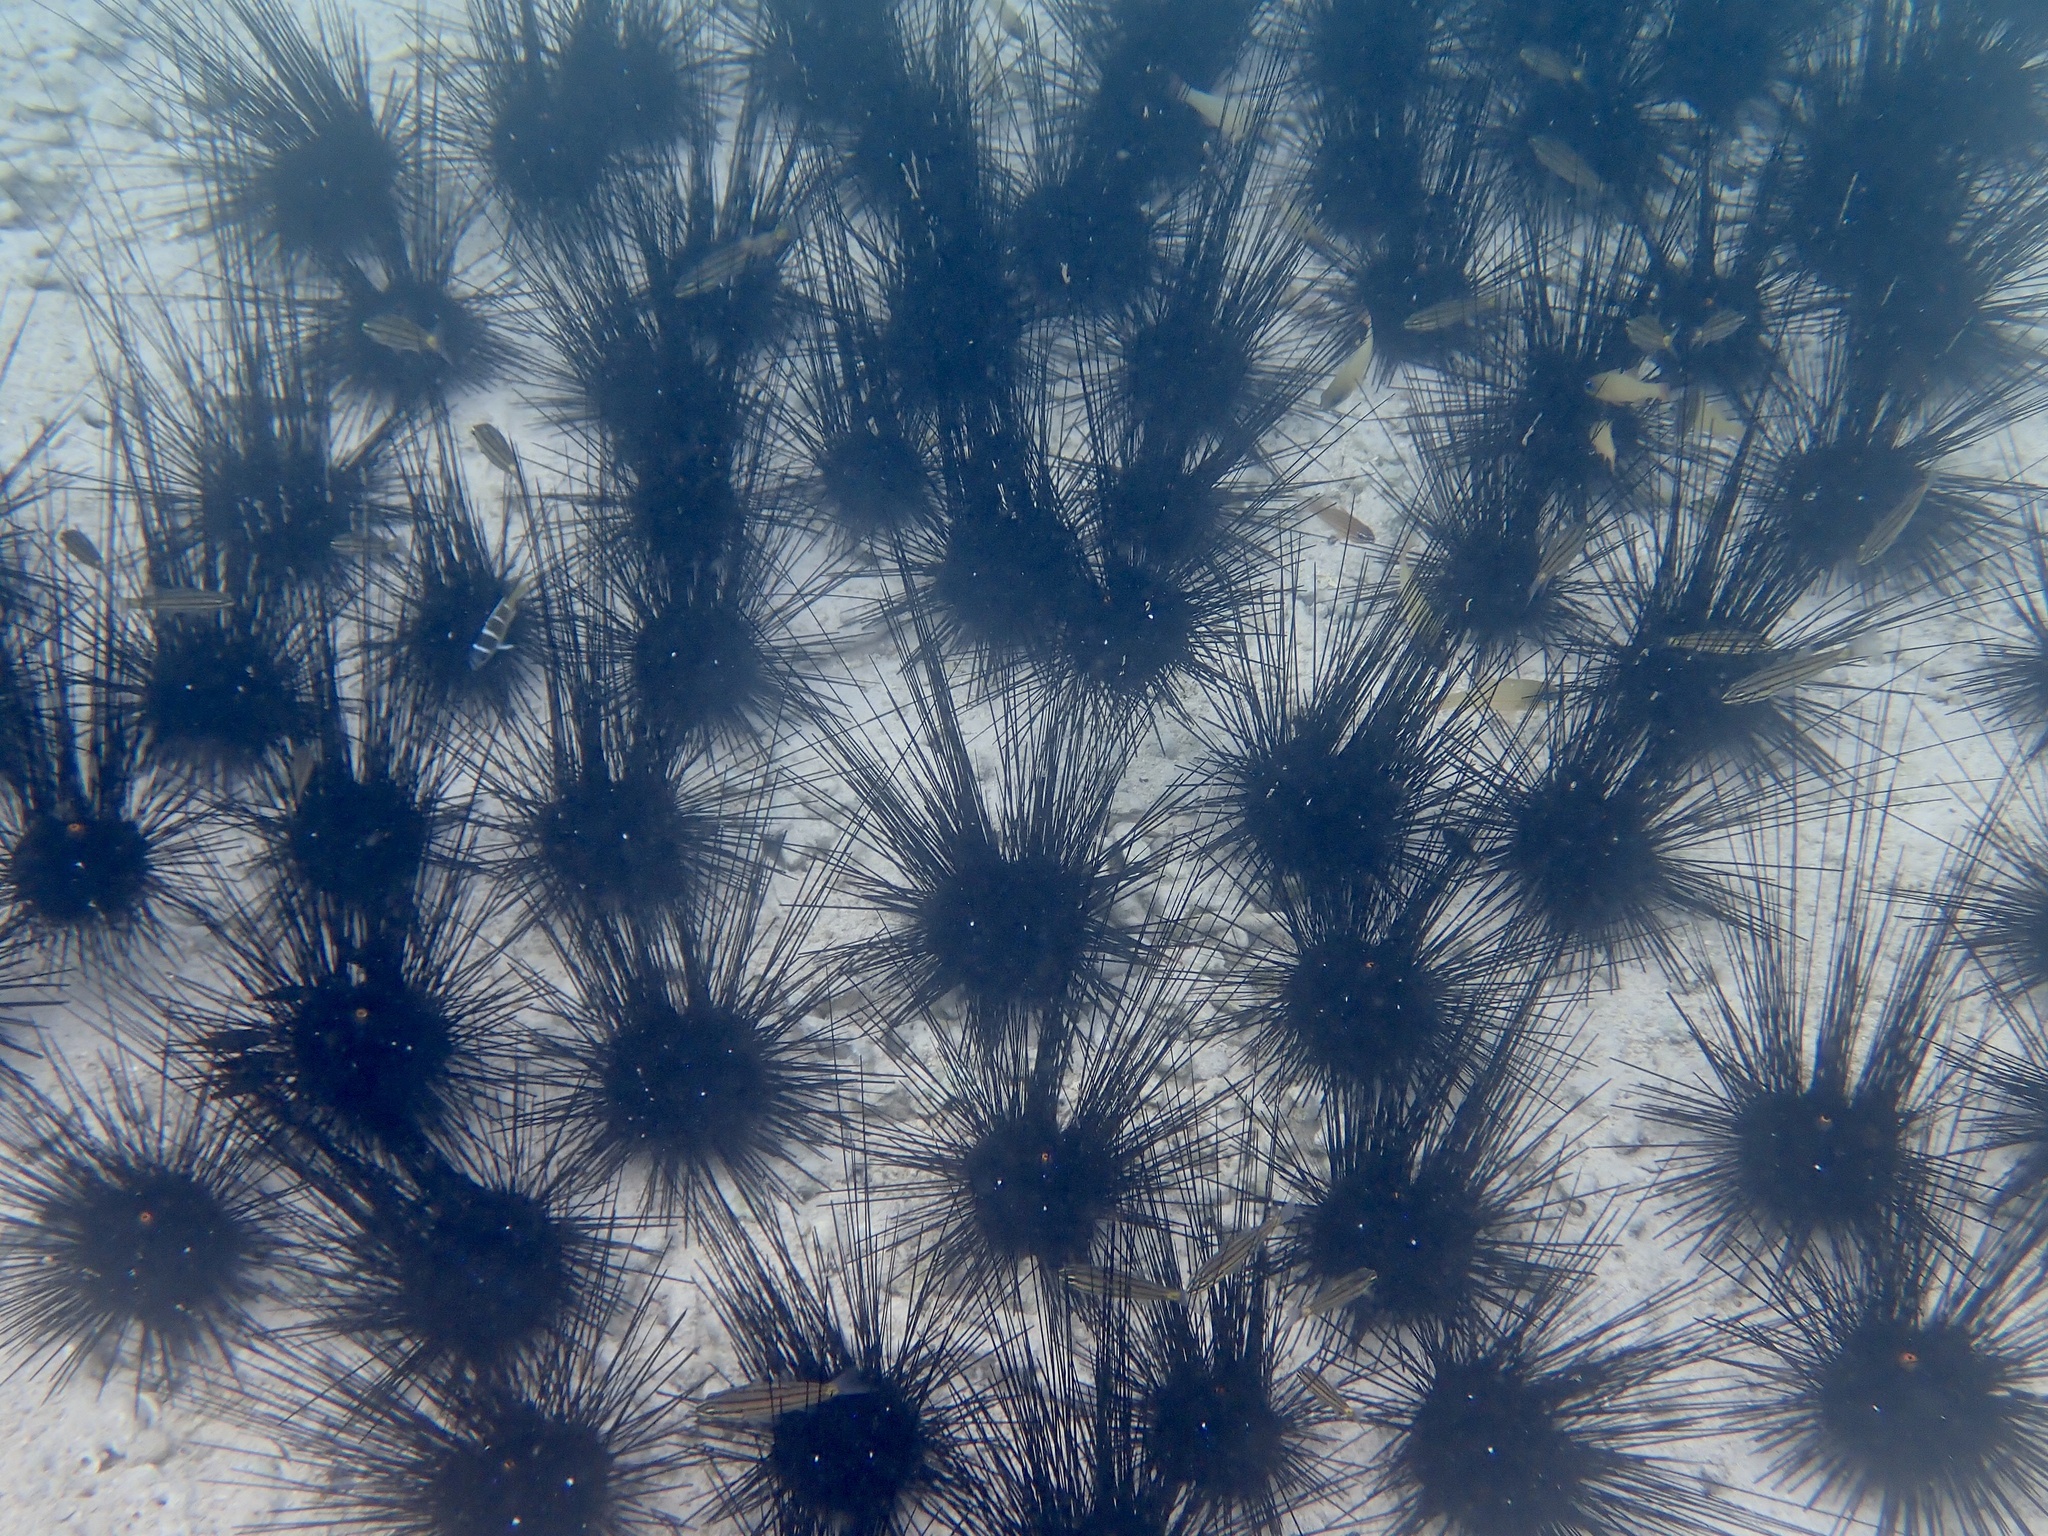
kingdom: Animalia
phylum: Echinodermata
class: Echinoidea
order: Diadematoida
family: Diadematidae
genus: Diadema
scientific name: Diadema setosum
